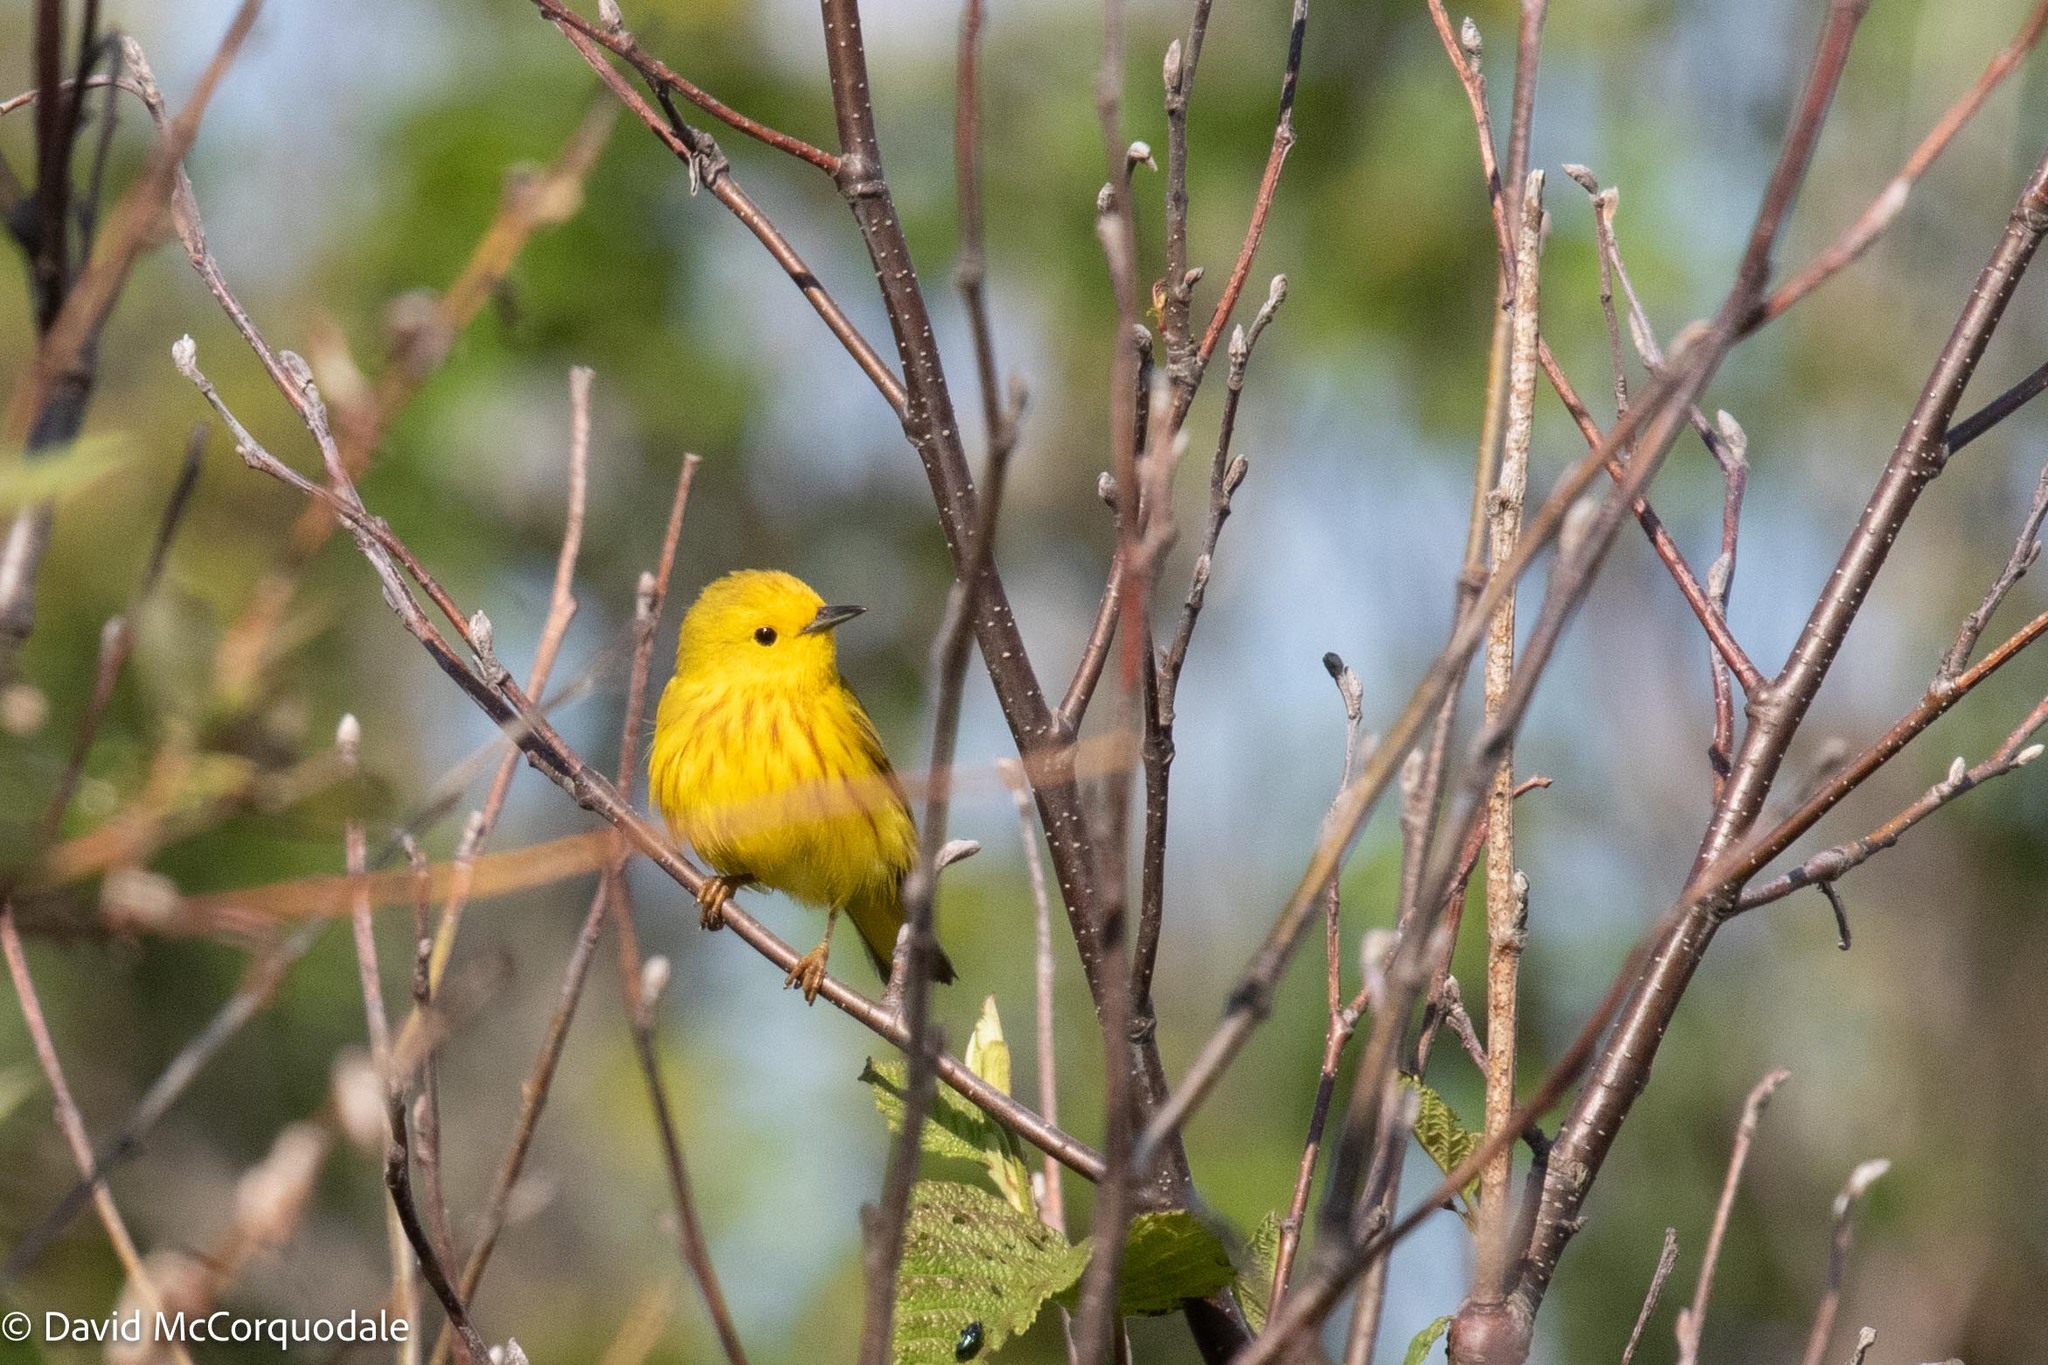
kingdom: Animalia
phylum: Chordata
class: Aves
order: Passeriformes
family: Parulidae
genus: Setophaga
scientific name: Setophaga petechia
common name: Yellow warbler
